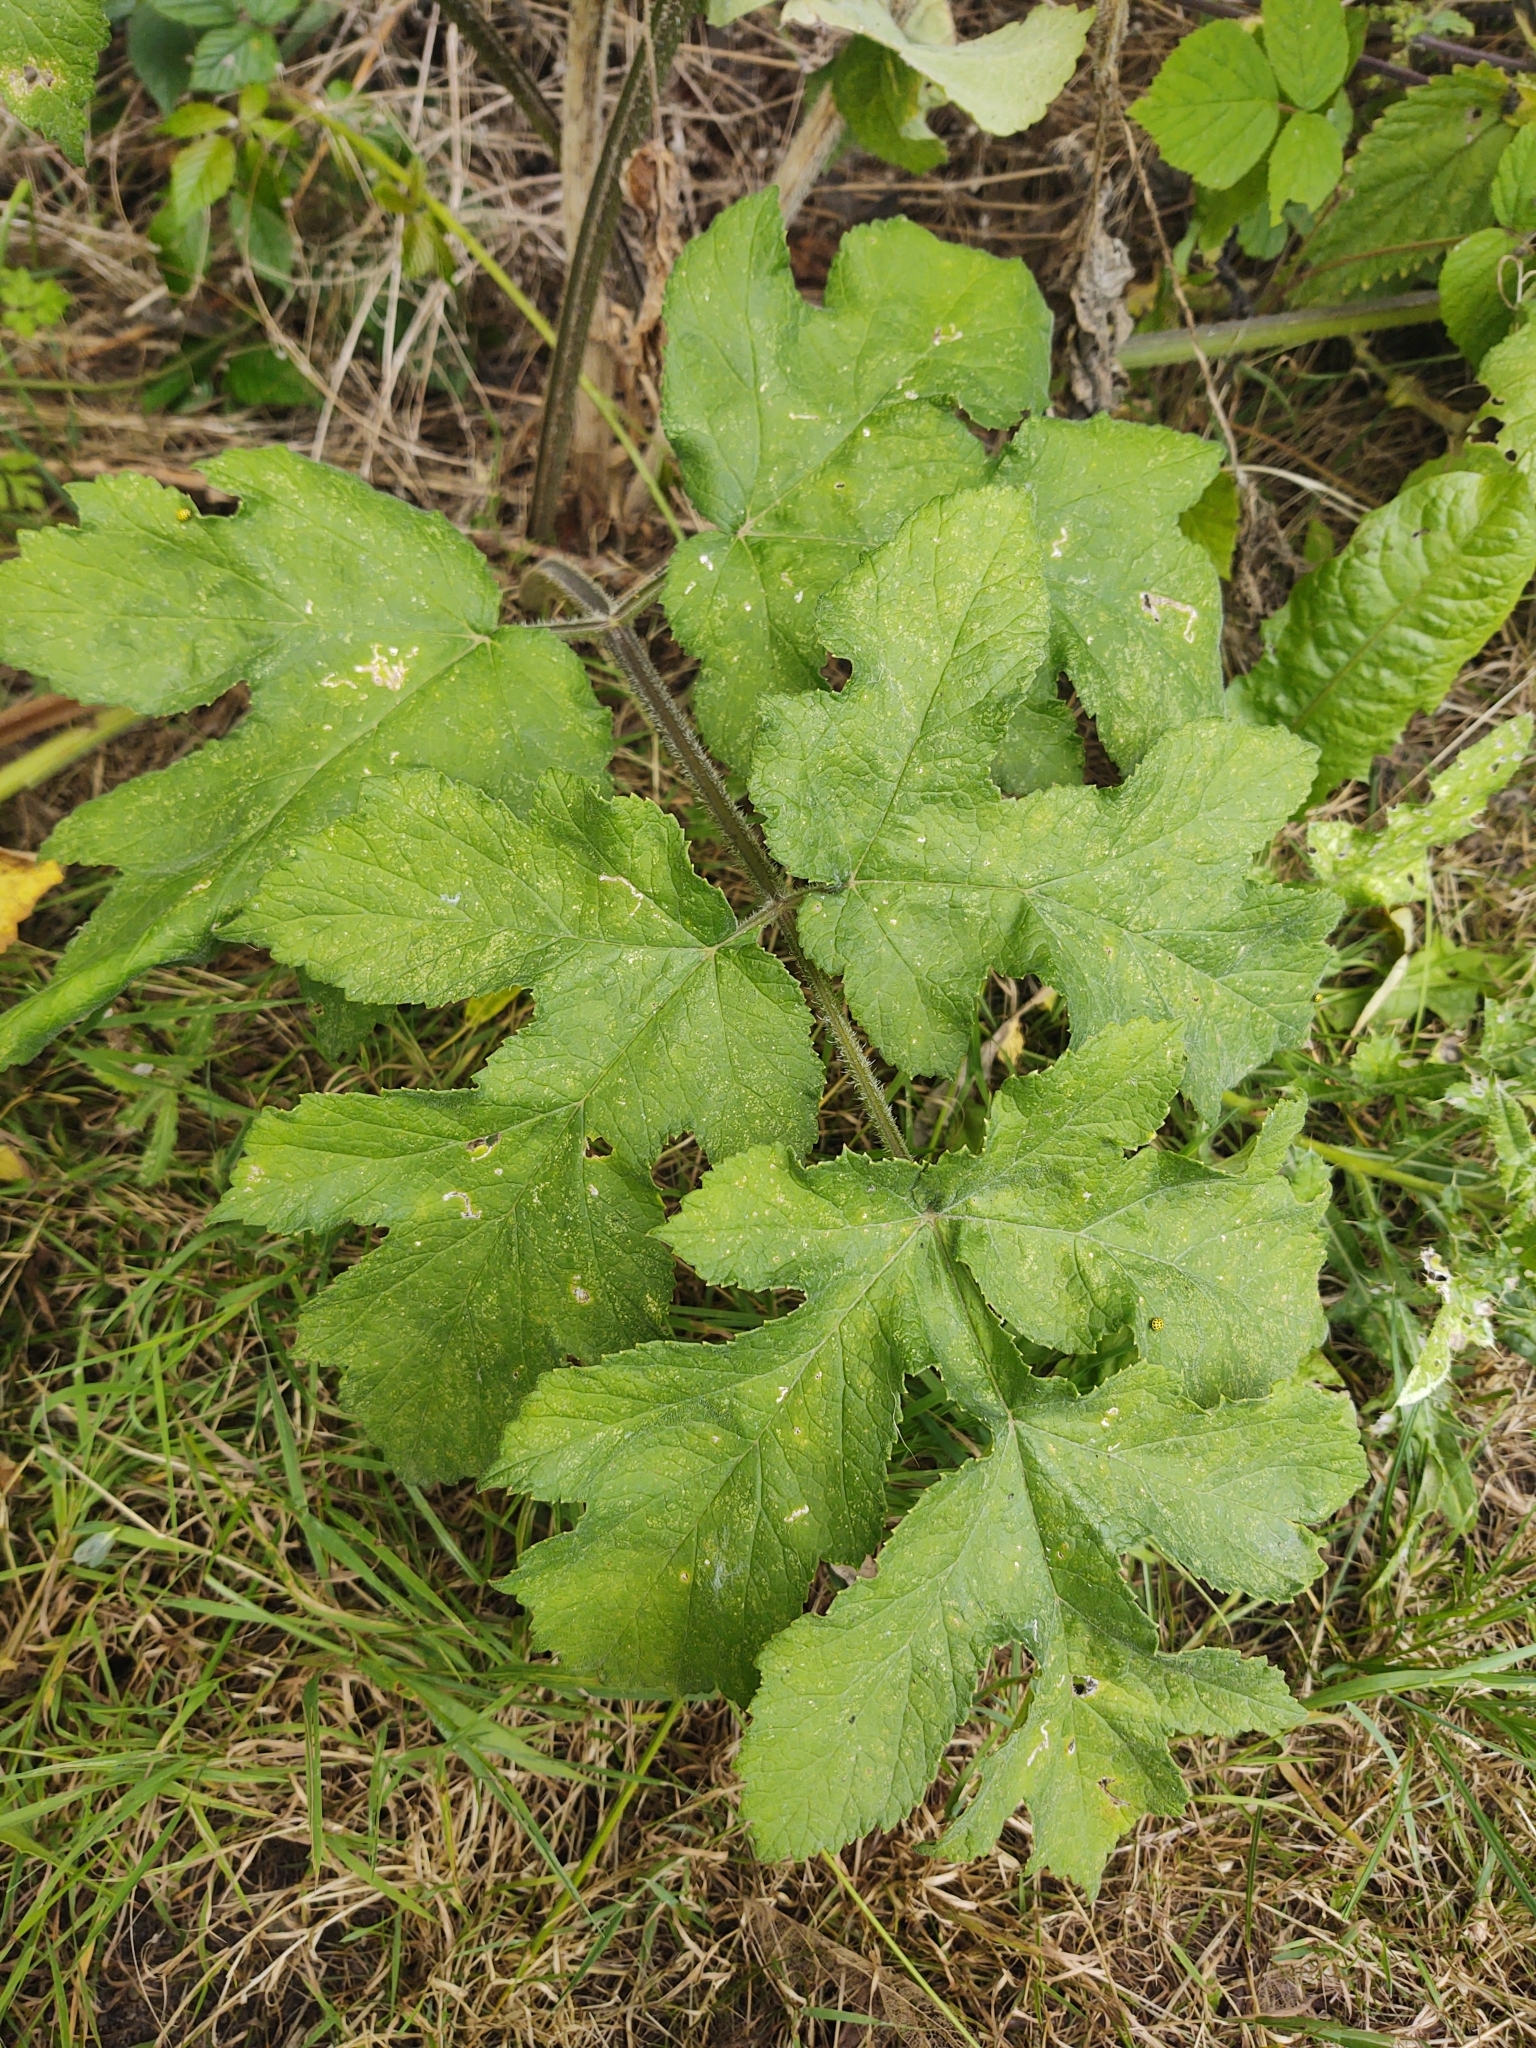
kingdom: Plantae
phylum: Tracheophyta
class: Magnoliopsida
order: Apiales
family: Apiaceae
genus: Heracleum
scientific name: Heracleum sphondylium
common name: Hogweed
